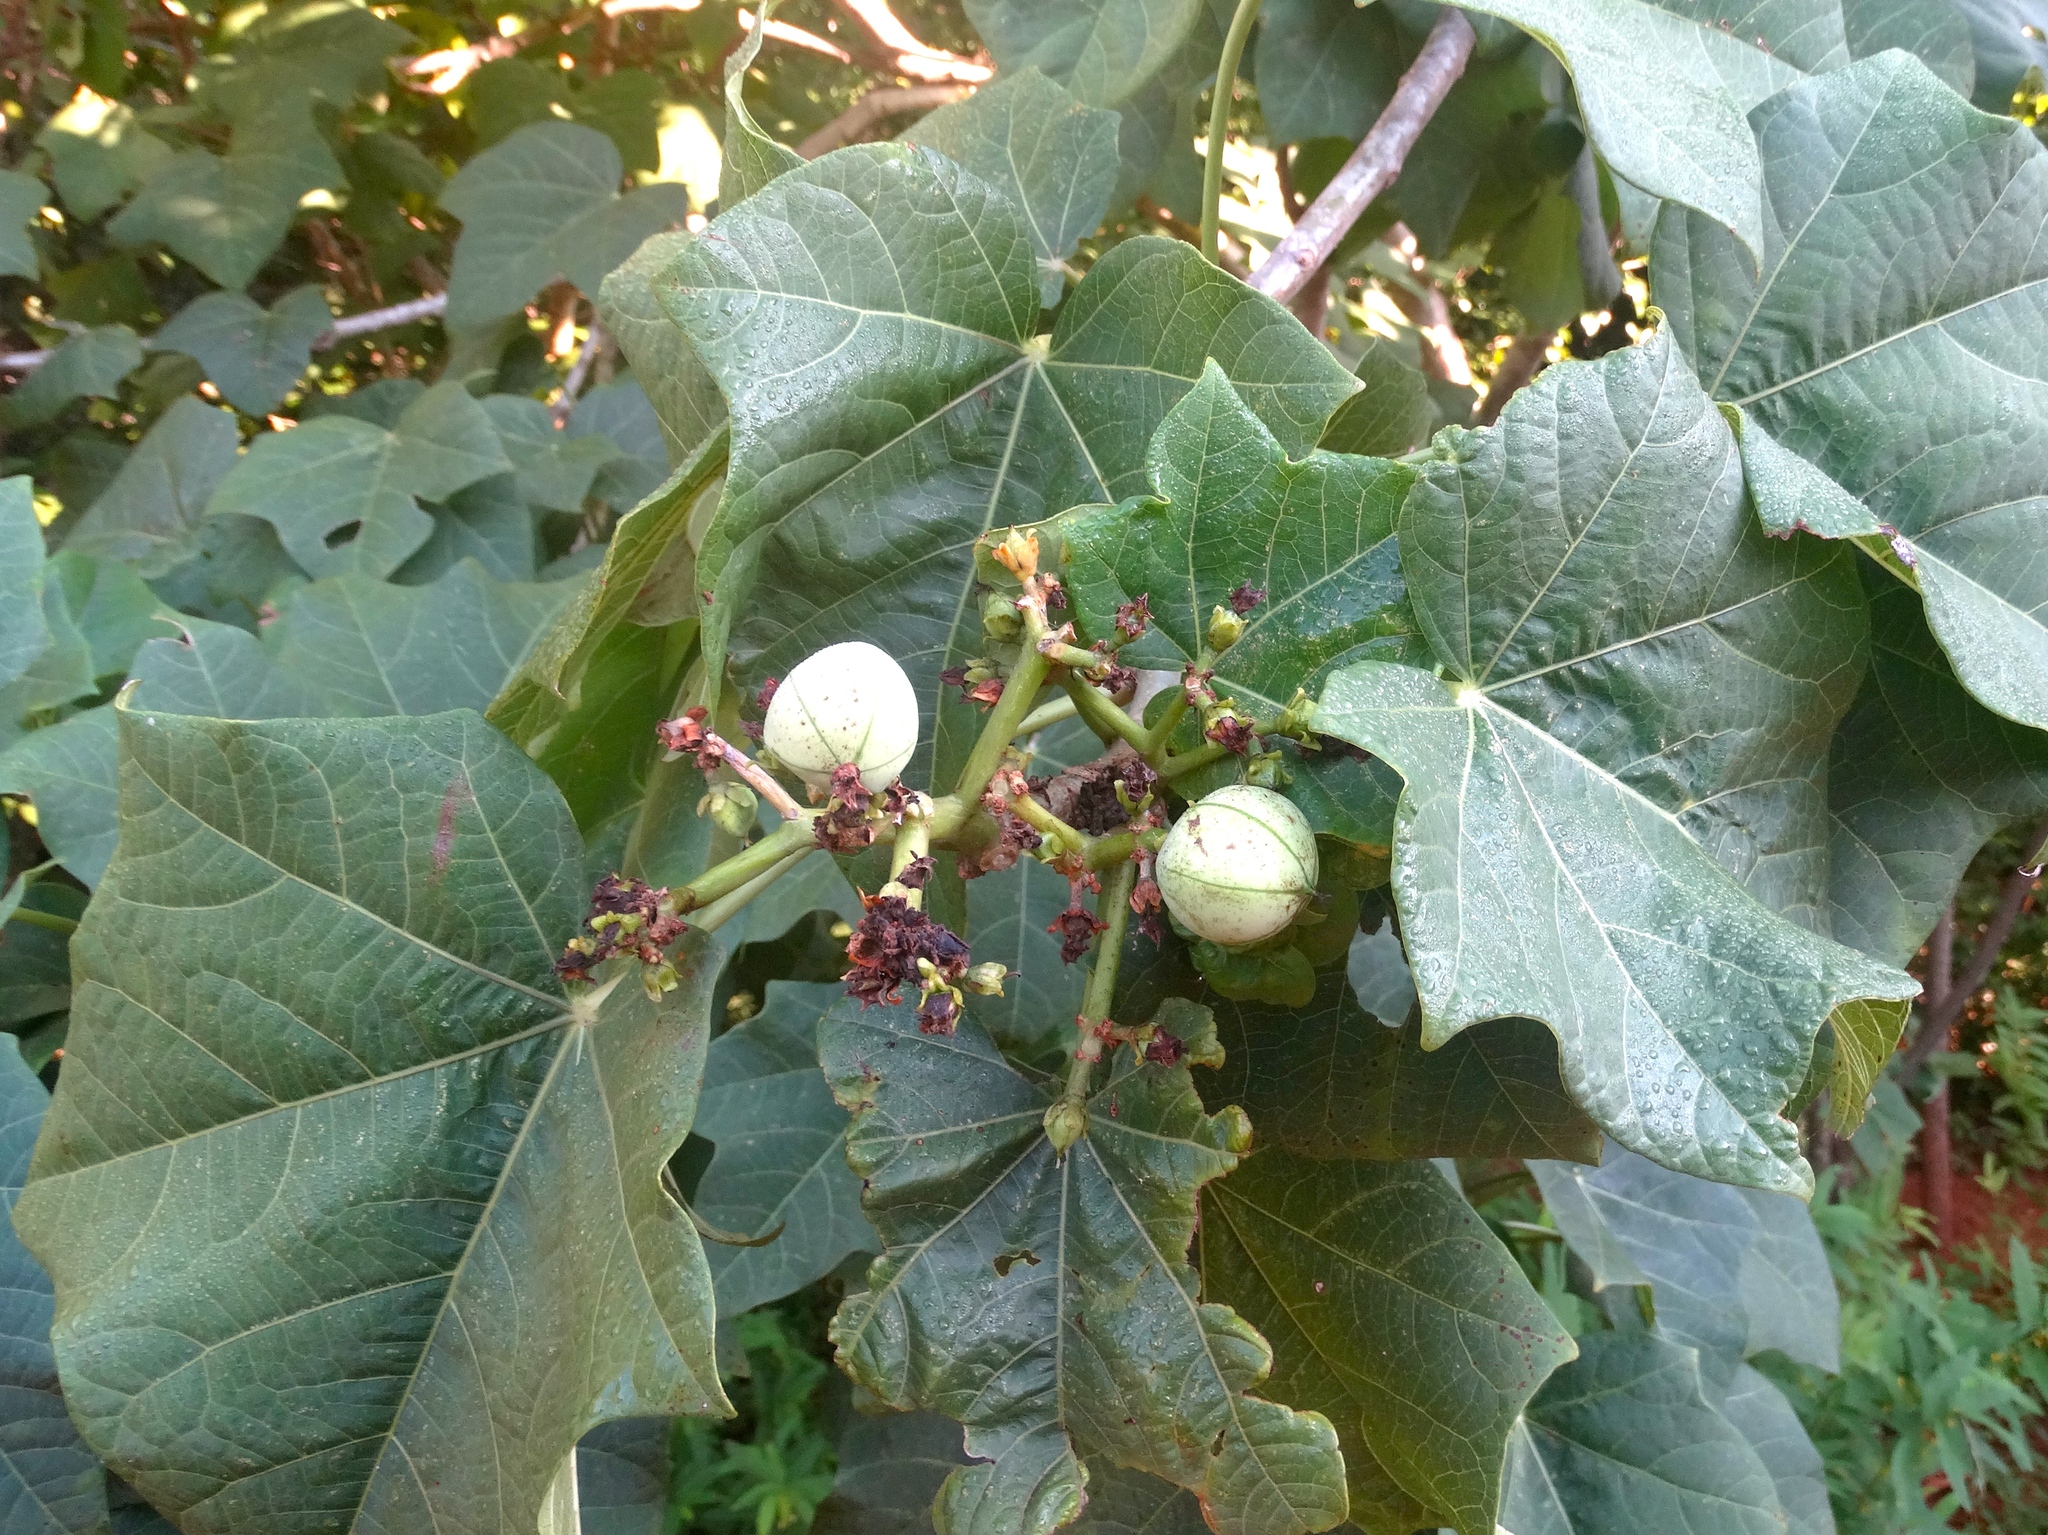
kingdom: Plantae
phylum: Tracheophyta
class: Magnoliopsida
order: Malpighiales
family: Euphorbiaceae
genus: Jatropha
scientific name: Jatropha curcas
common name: Barbados nut
